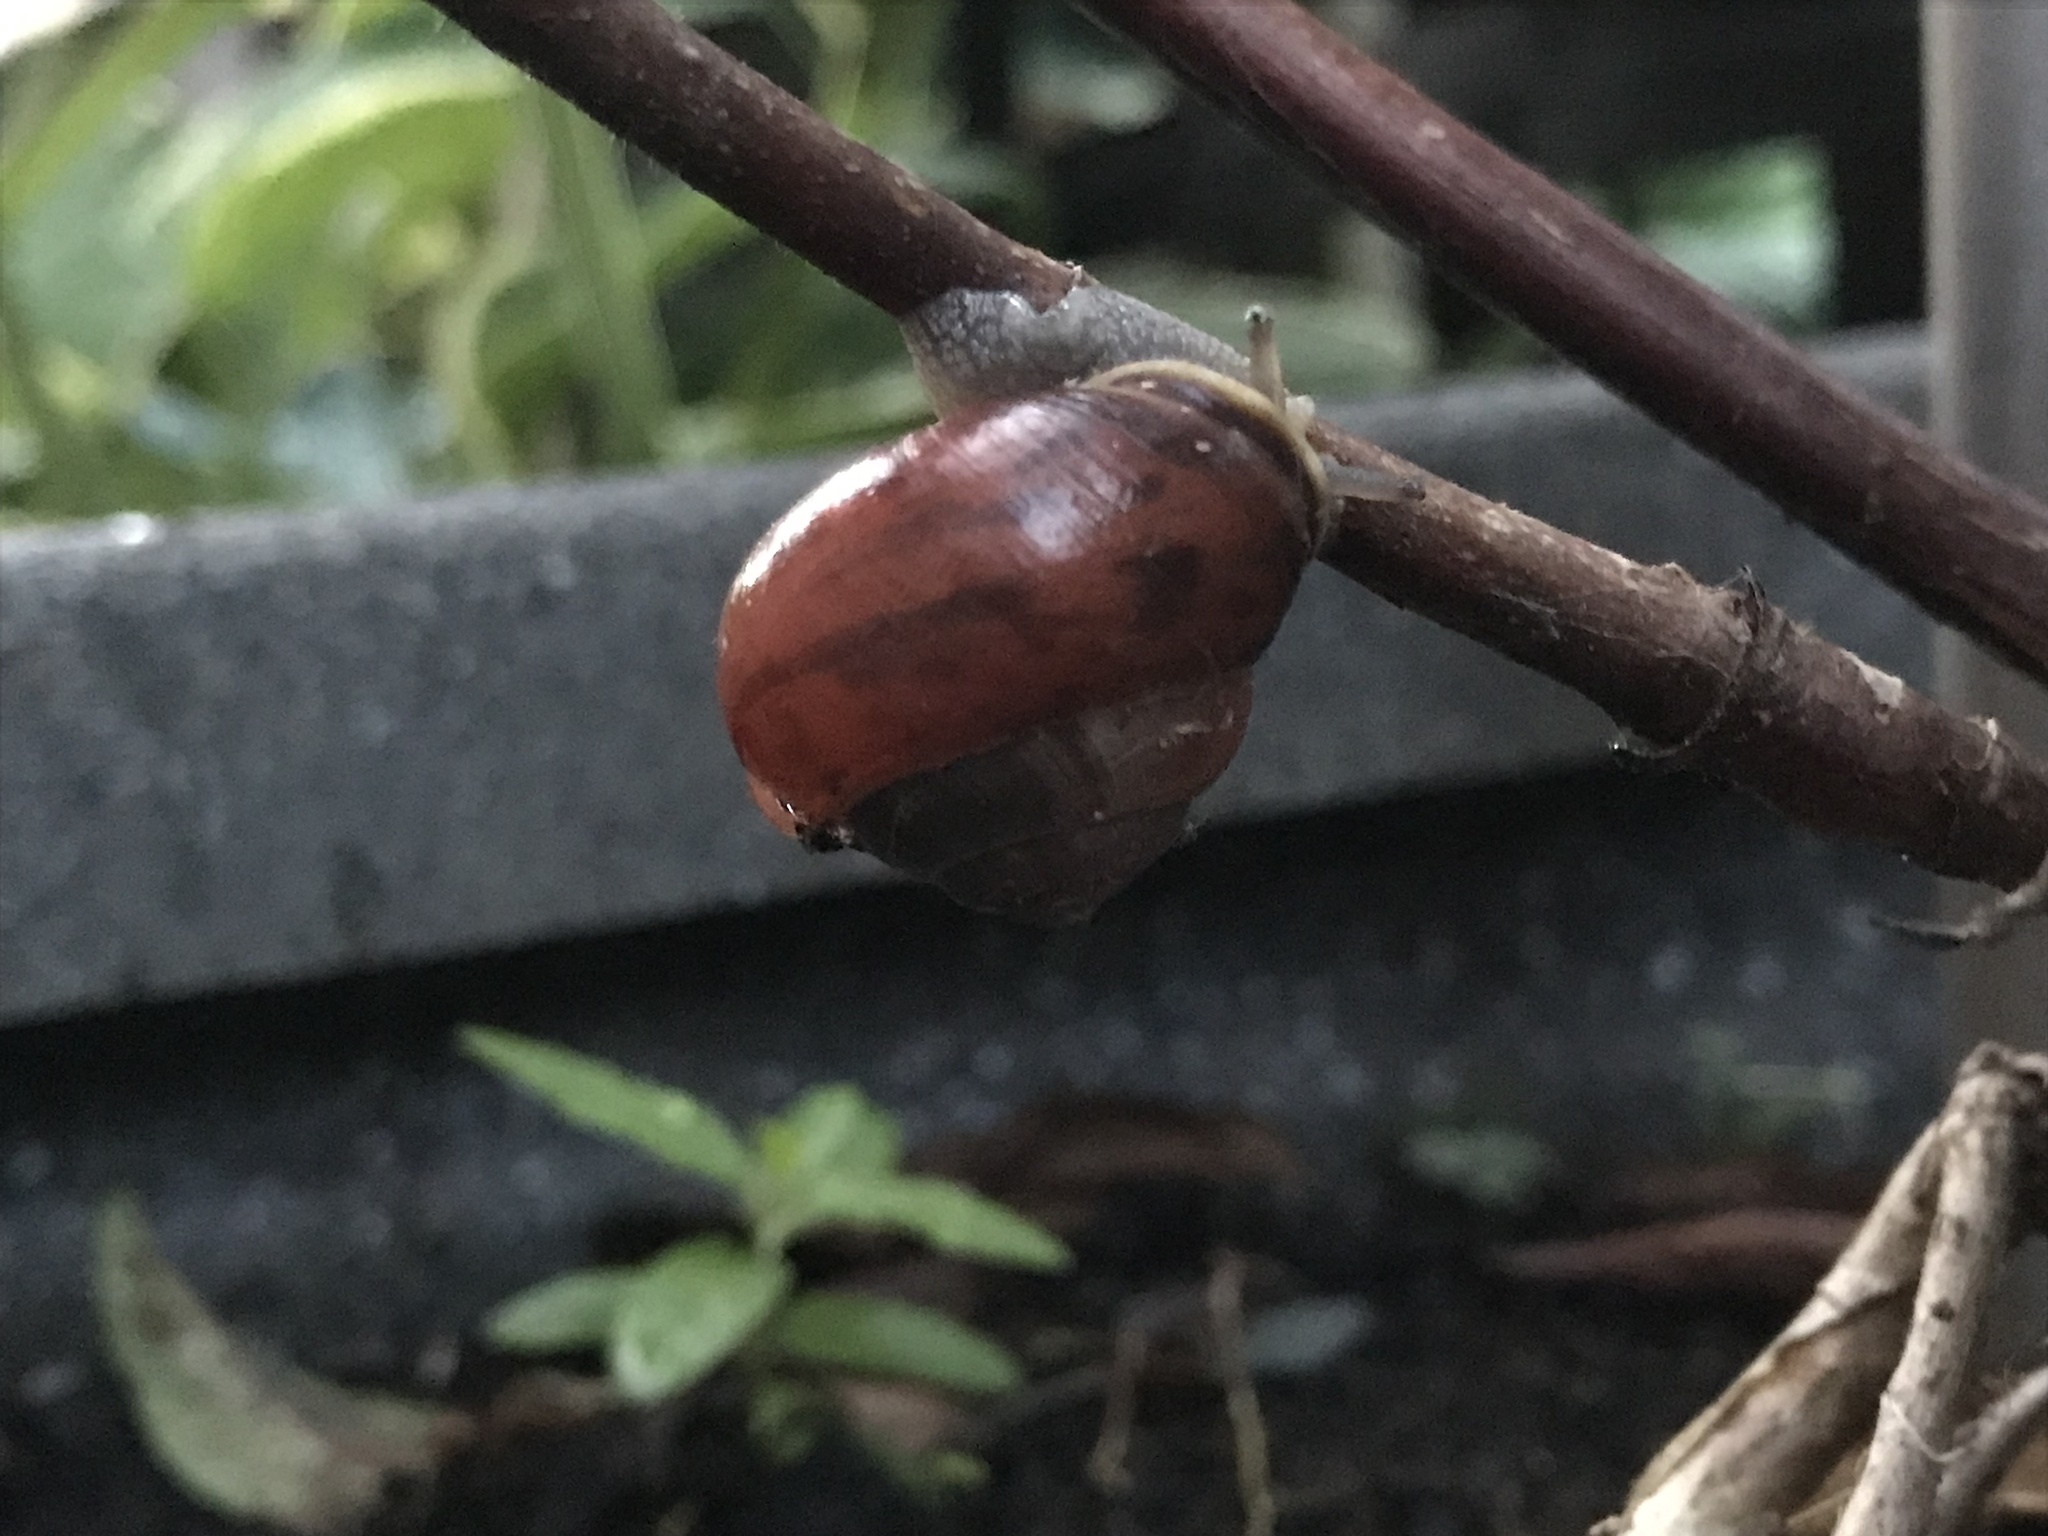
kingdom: Animalia
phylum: Mollusca
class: Gastropoda
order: Stylommatophora
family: Helicidae
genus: Cepaea
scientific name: Cepaea nemoralis
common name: Grovesnail
